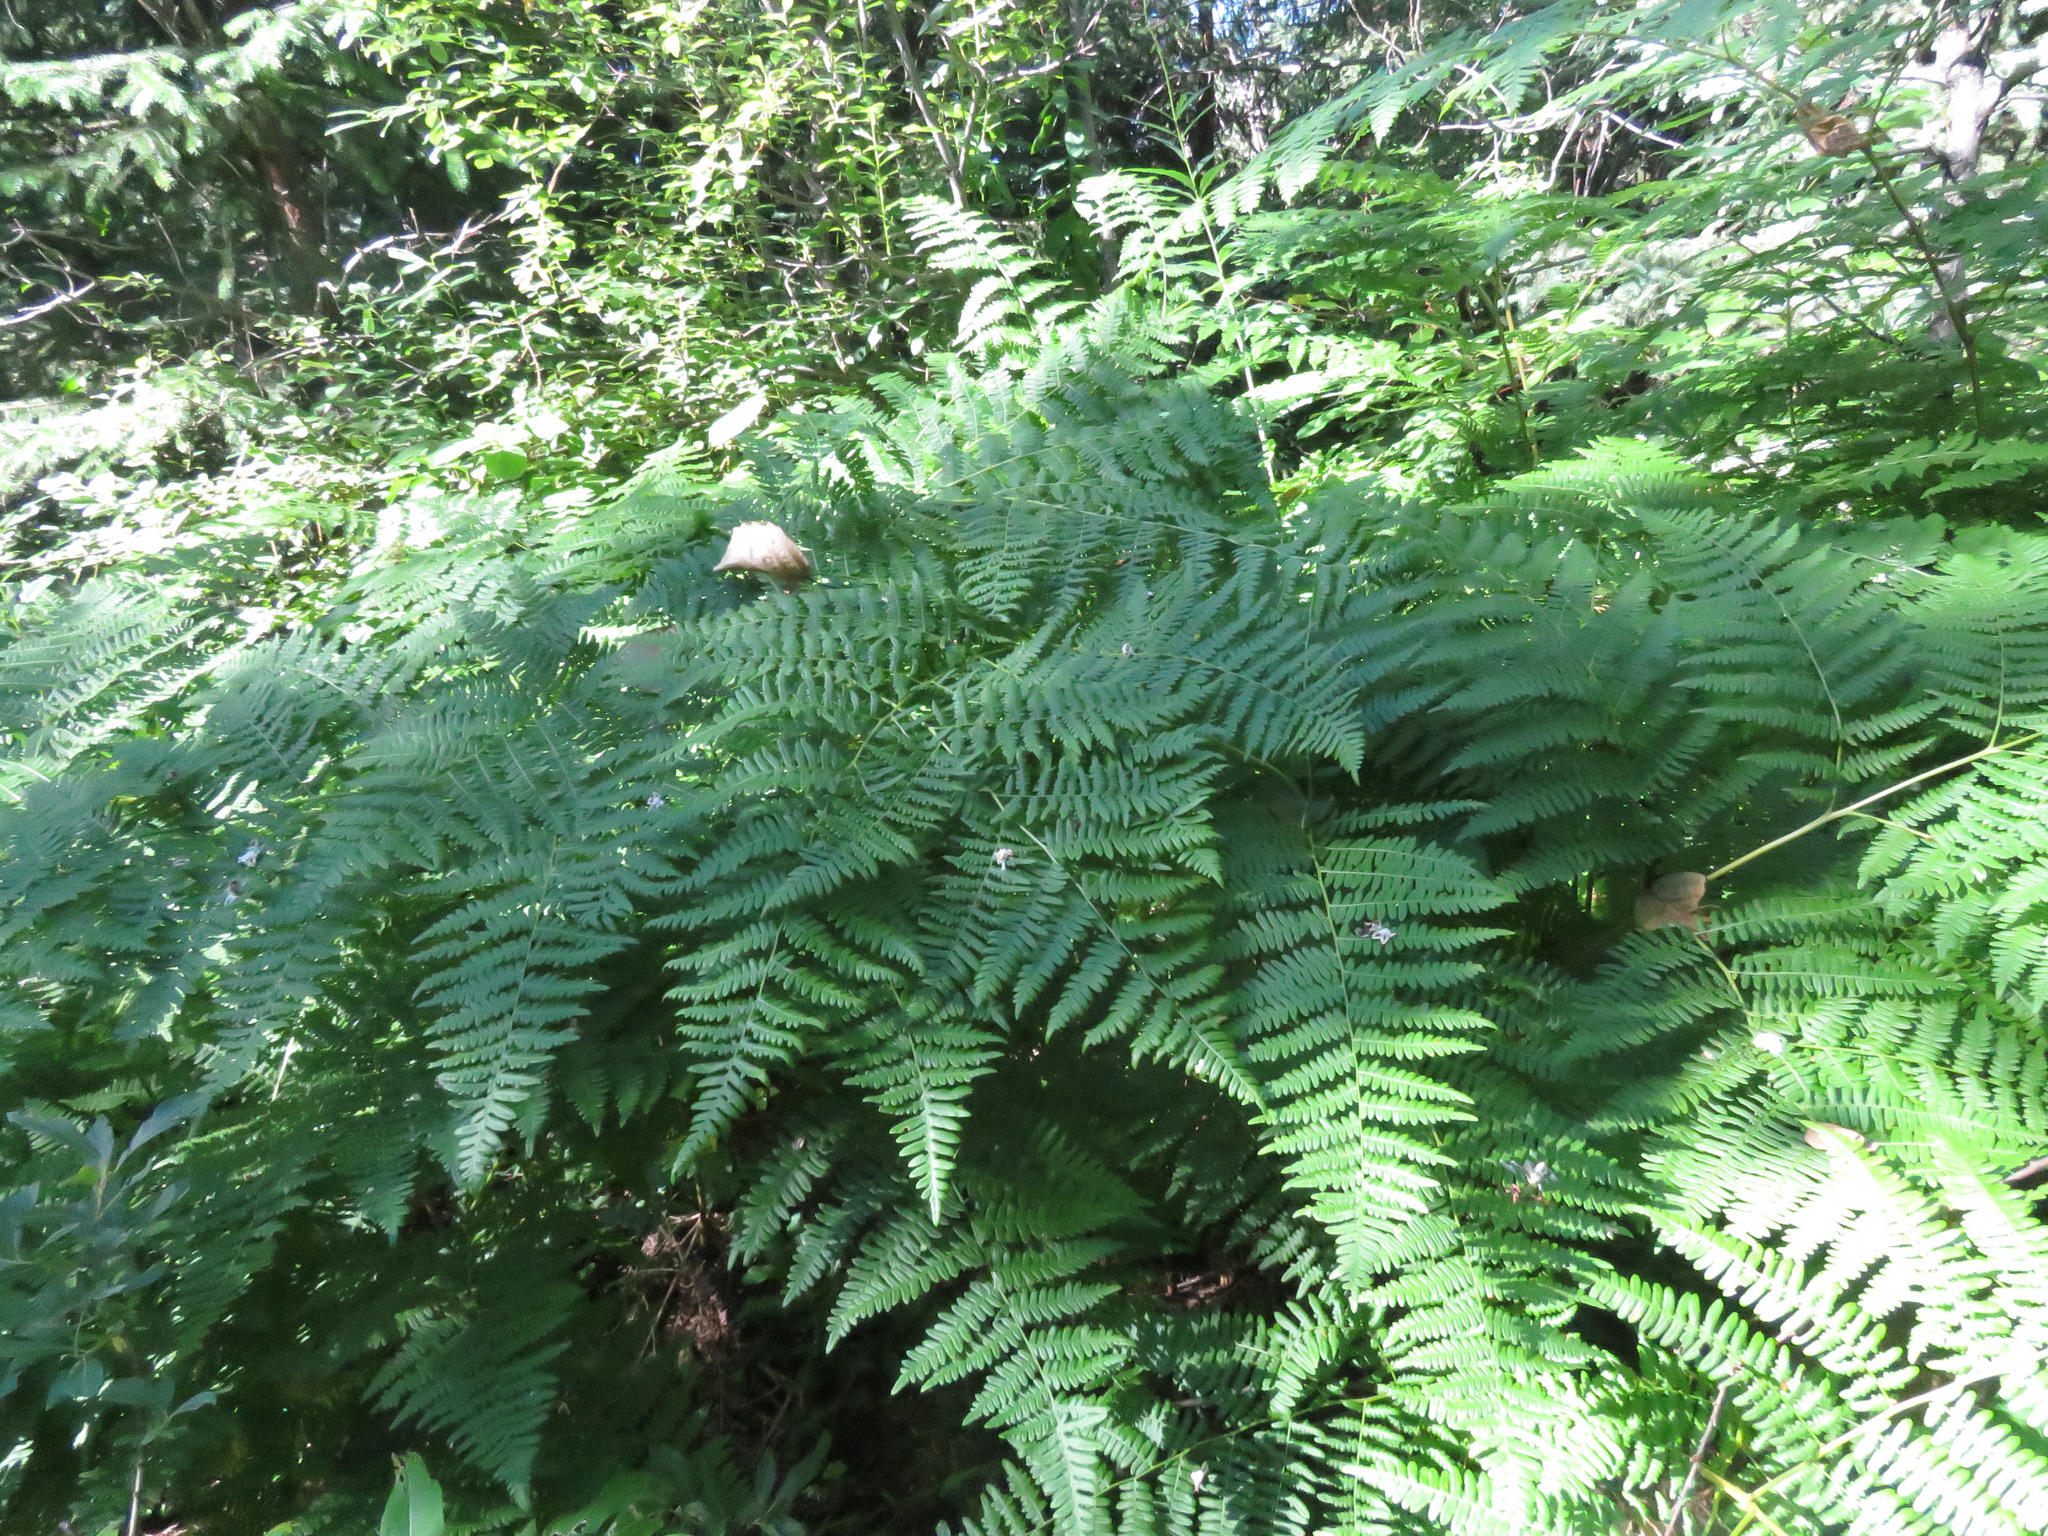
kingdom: Plantae
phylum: Tracheophyta
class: Polypodiopsida
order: Polypodiales
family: Dennstaedtiaceae
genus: Pteridium
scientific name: Pteridium aquilinum
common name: Bracken
